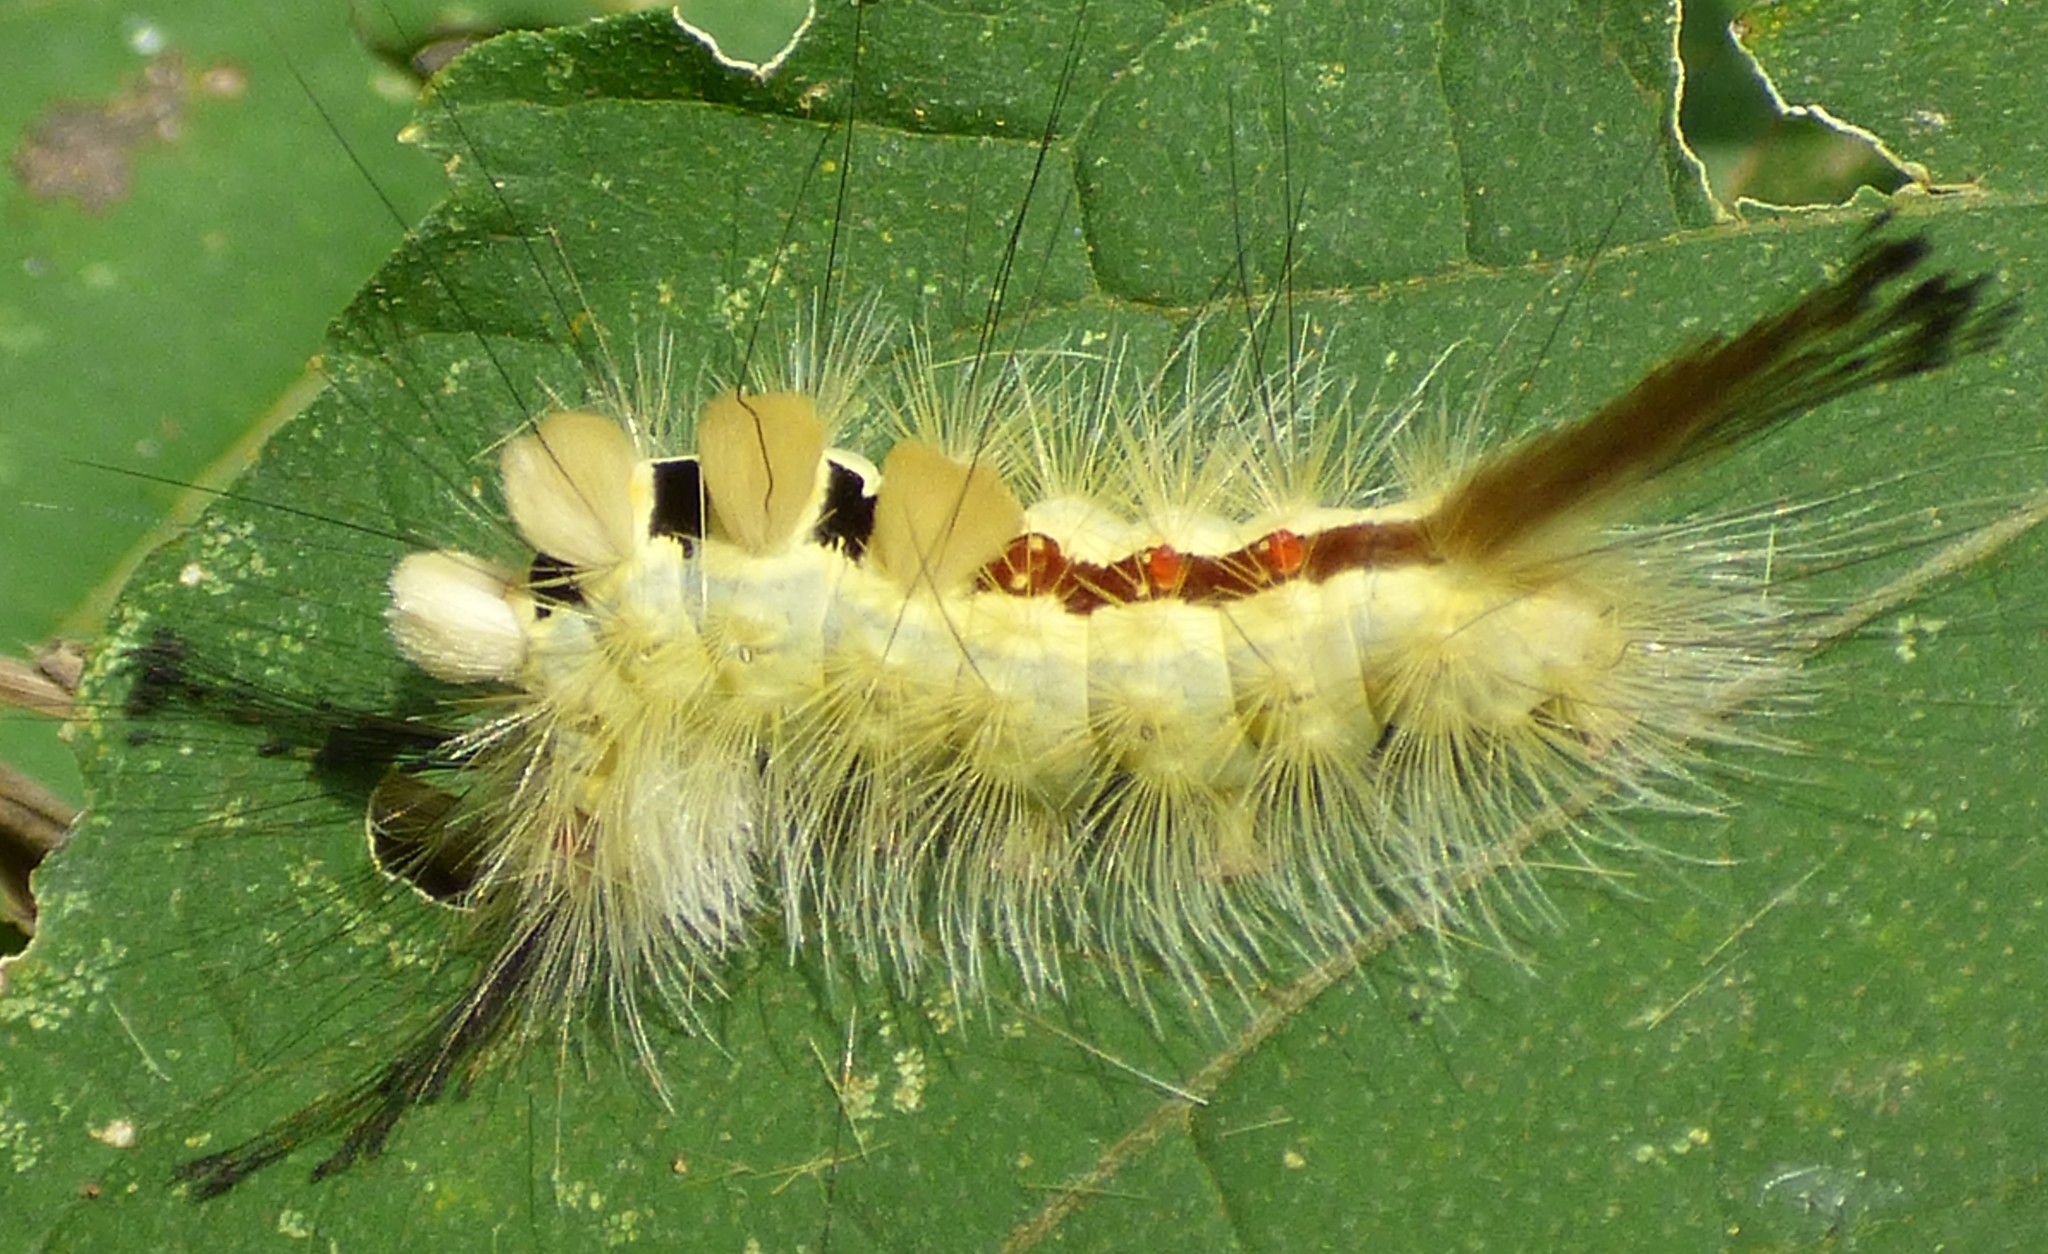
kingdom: Animalia
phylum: Arthropoda
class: Insecta
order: Lepidoptera
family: Erebidae
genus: Orgyia
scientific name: Orgyia leucostigma
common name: White-marked tussock moth
